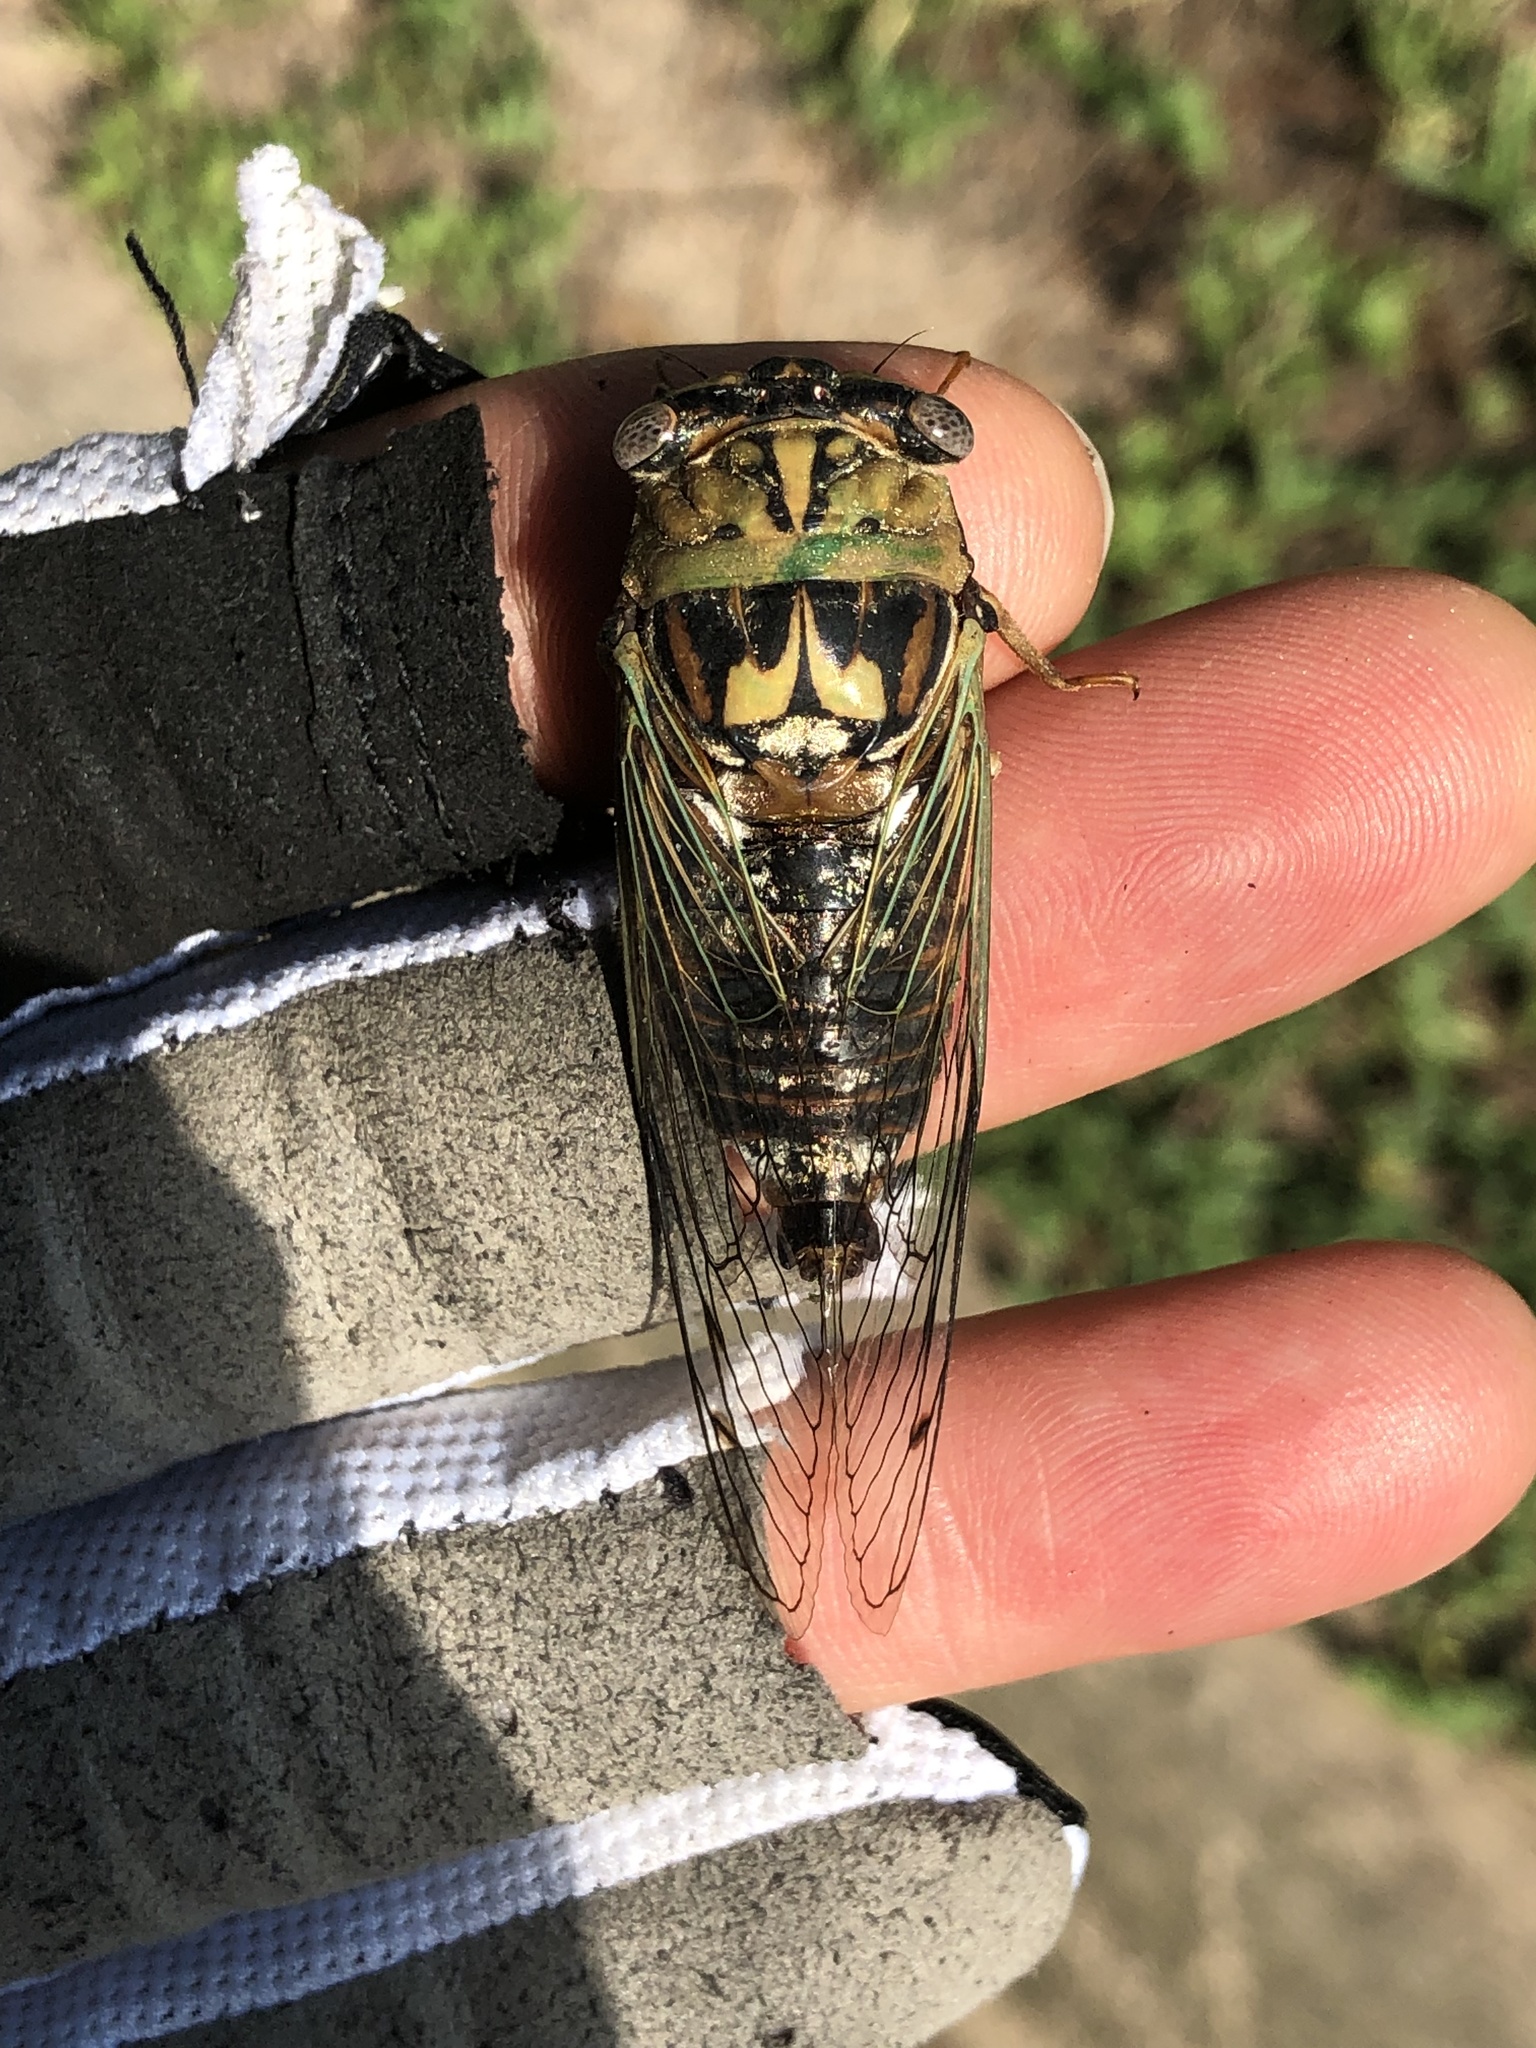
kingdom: Animalia
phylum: Arthropoda
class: Insecta
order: Hemiptera
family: Cicadidae
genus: Megatibicen
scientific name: Megatibicen resh
